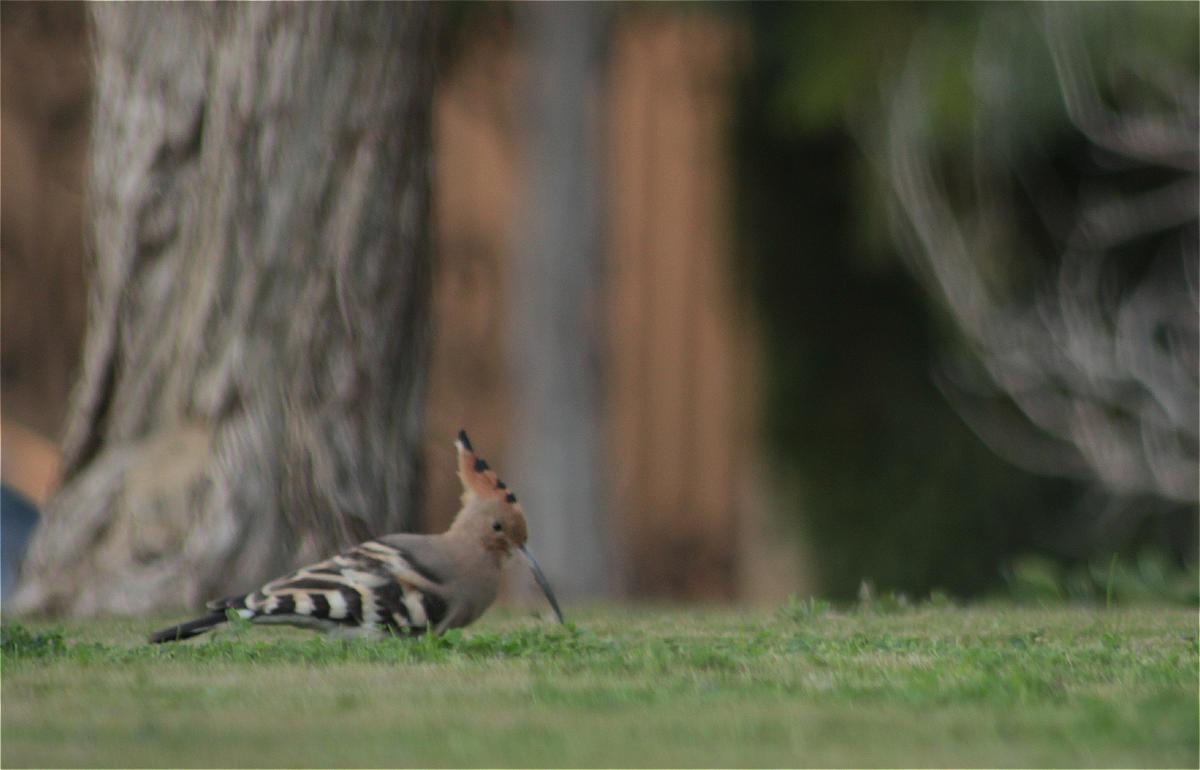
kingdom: Animalia
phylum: Chordata
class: Aves
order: Bucerotiformes
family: Upupidae
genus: Upupa
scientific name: Upupa epops
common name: Eurasian hoopoe
